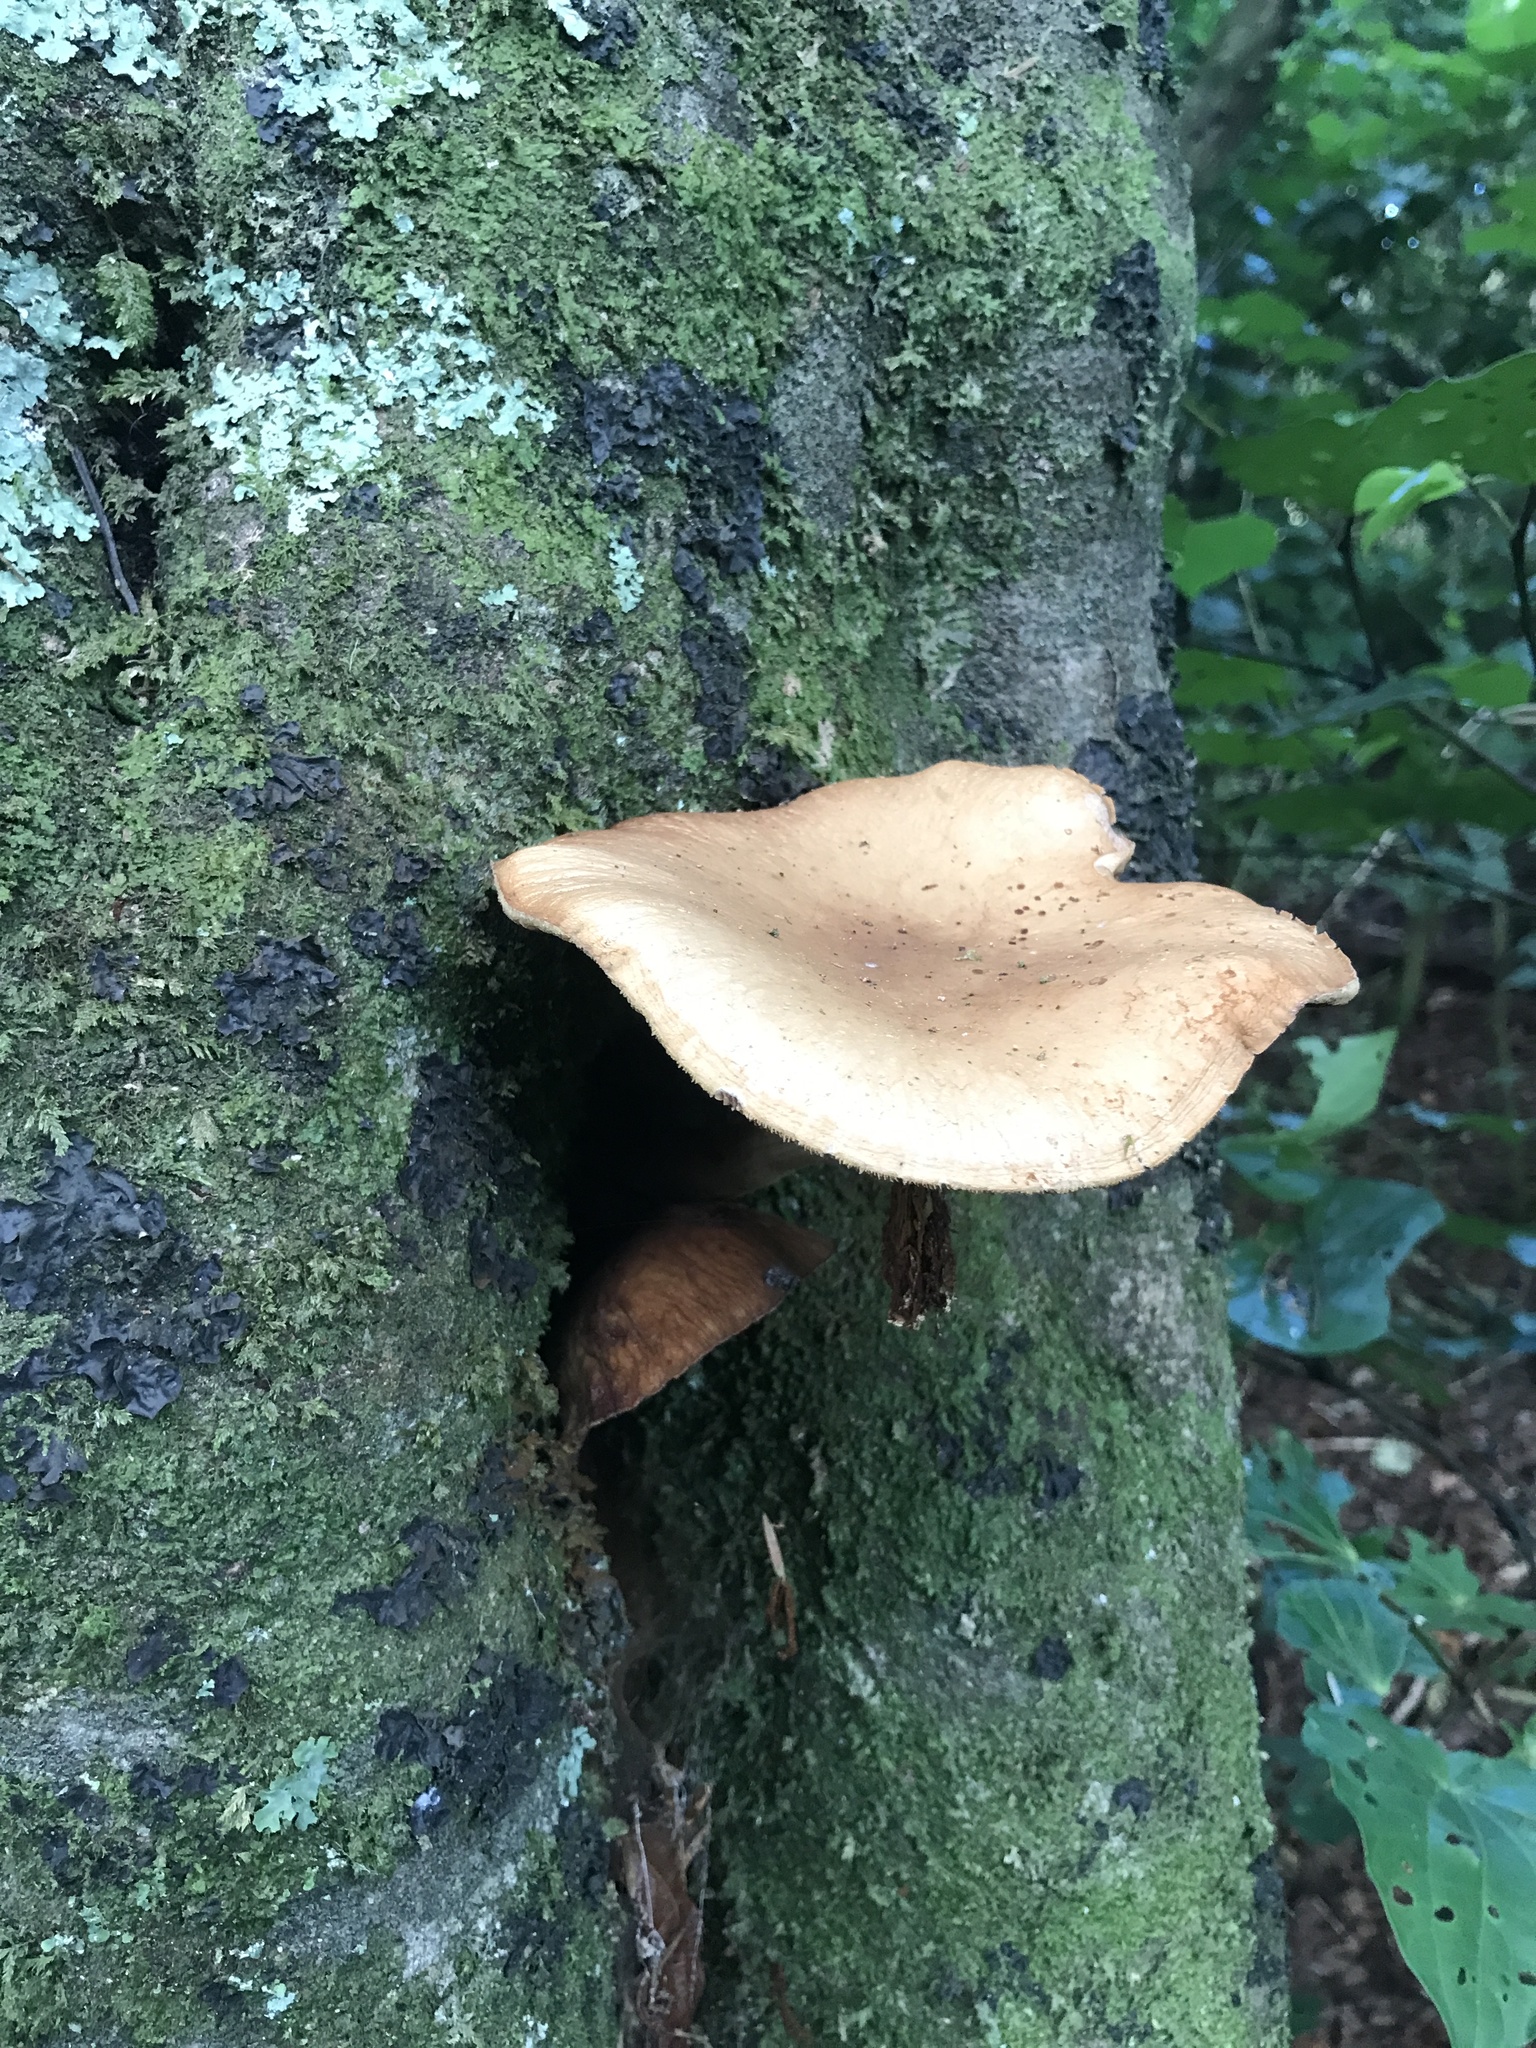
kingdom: Fungi
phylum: Basidiomycota
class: Agaricomycetes
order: Agaricales
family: Tubariaceae
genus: Cyclocybe
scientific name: Cyclocybe parasitica
